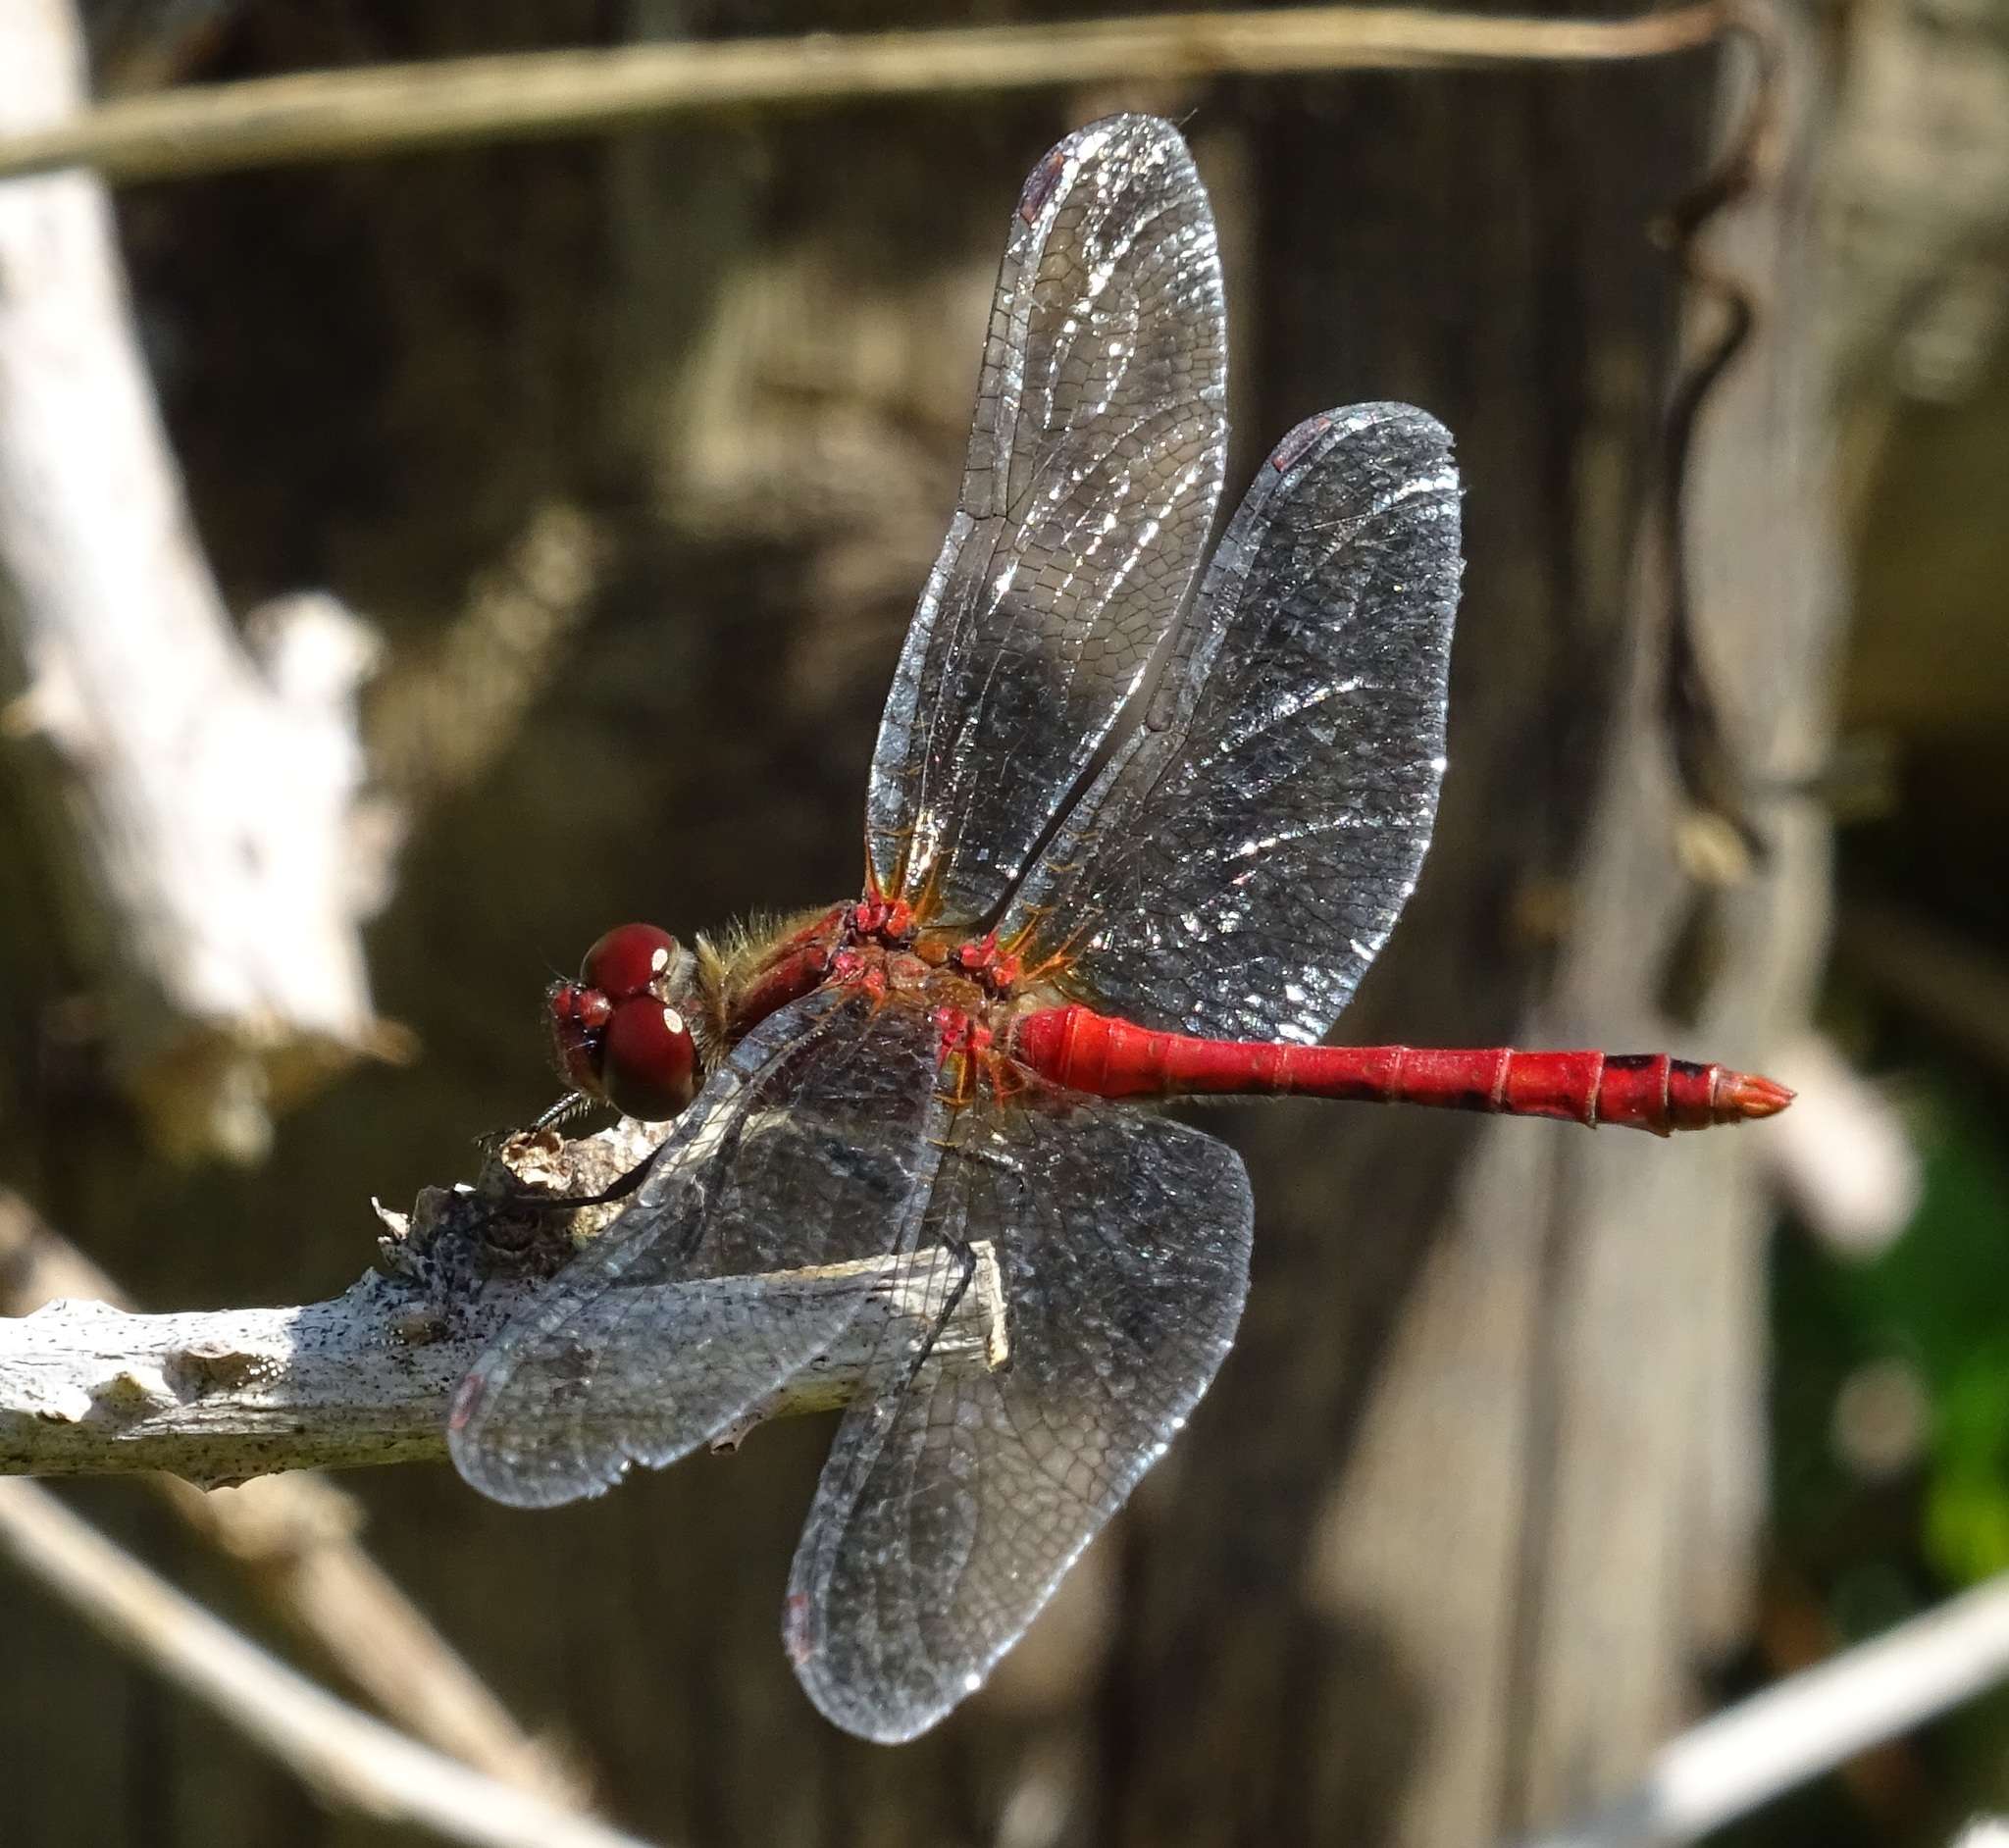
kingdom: Animalia
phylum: Arthropoda
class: Insecta
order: Odonata
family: Libellulidae
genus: Sympetrum
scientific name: Sympetrum sanguineum
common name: Ruddy darter
